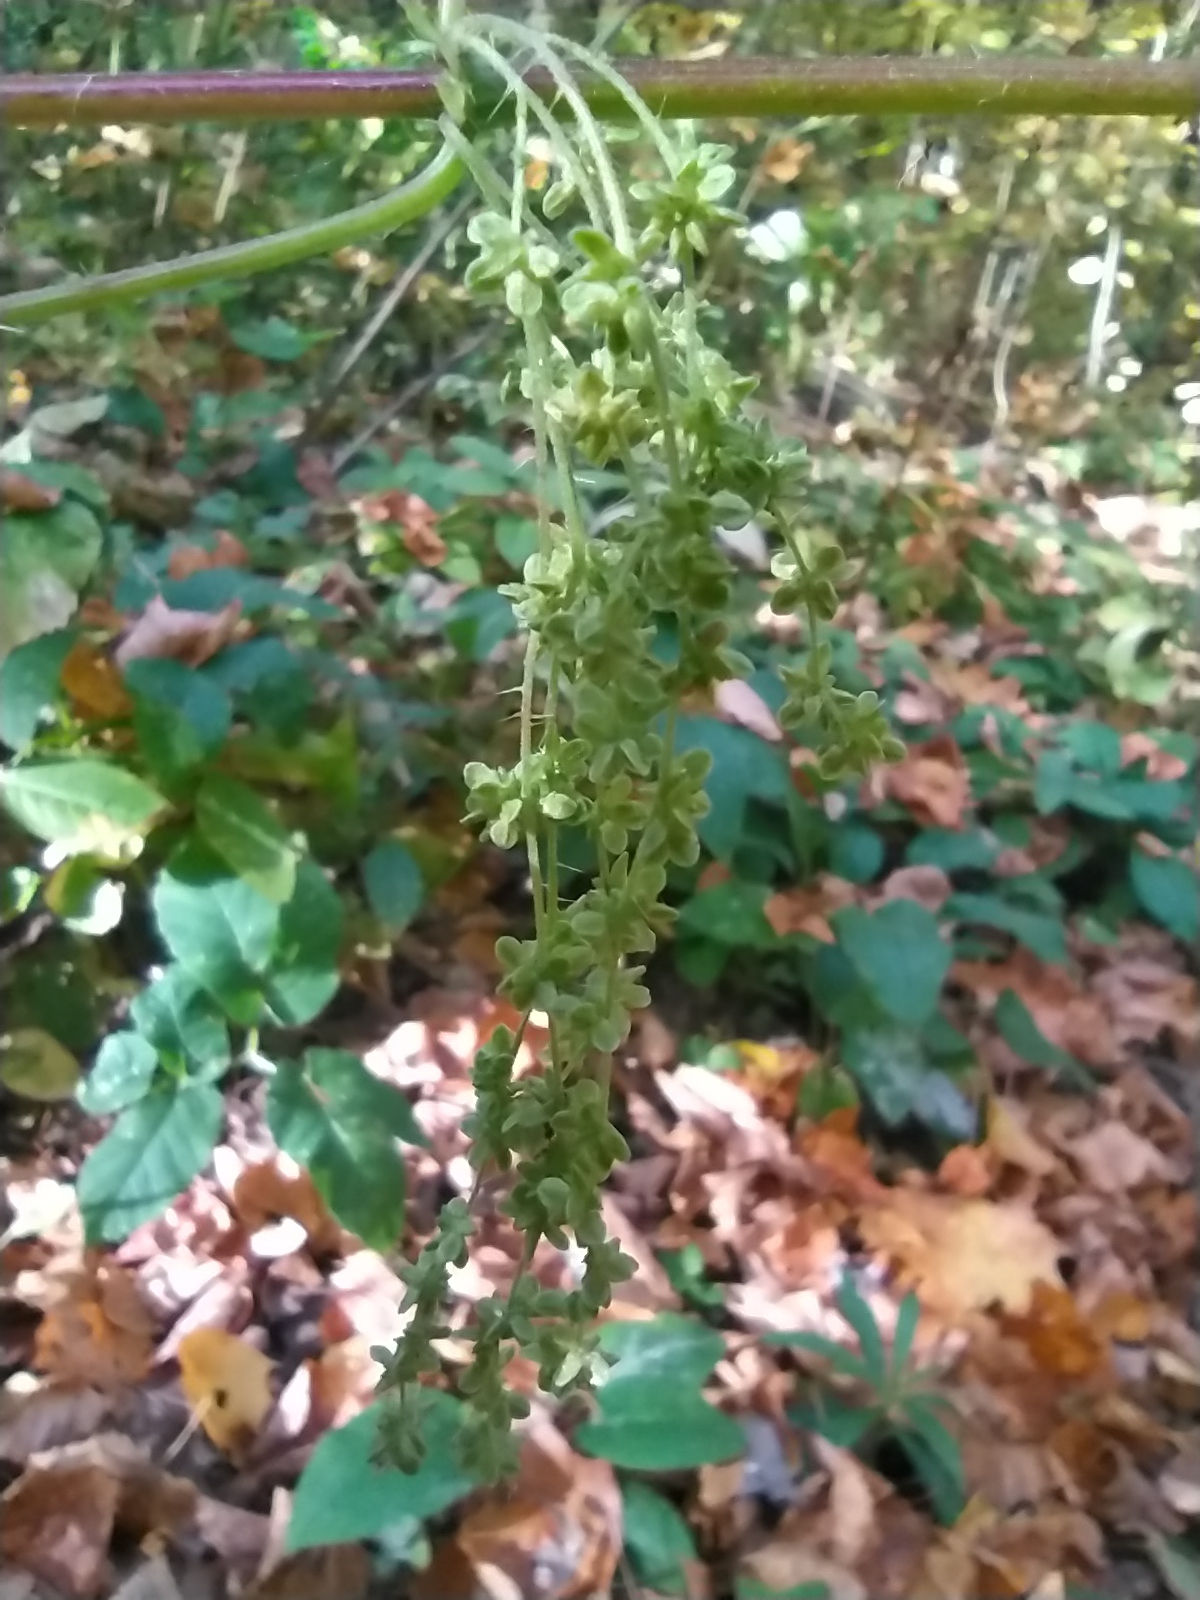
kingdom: Plantae
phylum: Tracheophyta
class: Magnoliopsida
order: Rosales
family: Urticaceae
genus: Urtica
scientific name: Urtica dioica
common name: Common nettle
